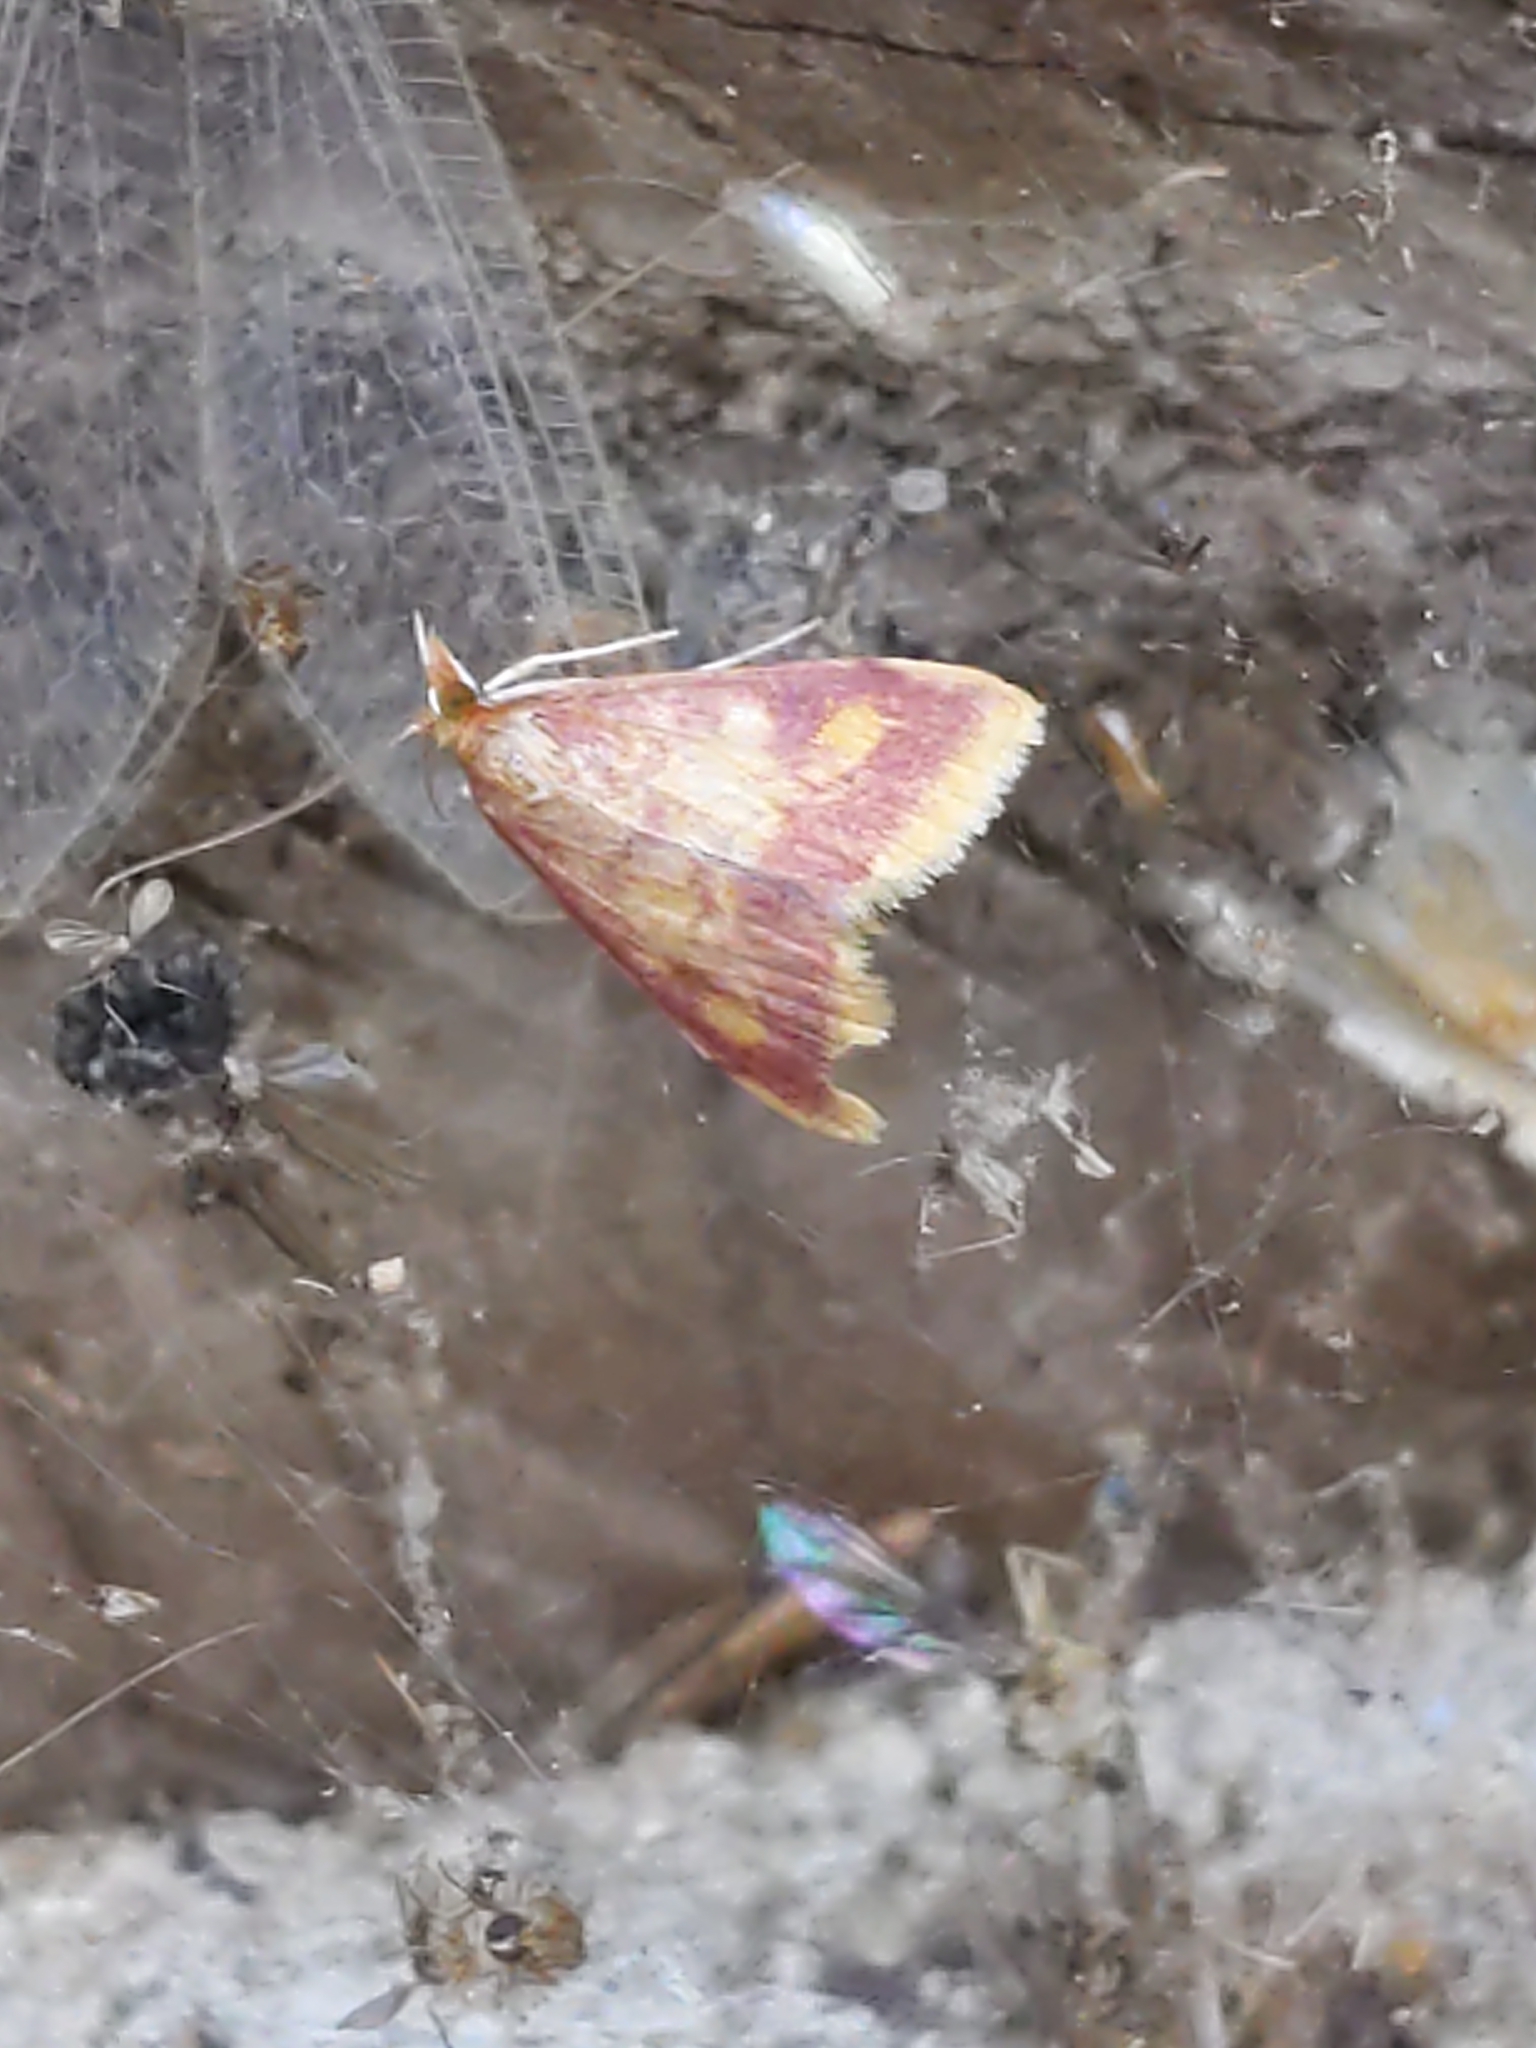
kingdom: Animalia
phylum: Arthropoda
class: Insecta
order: Lepidoptera
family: Crambidae
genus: Pyrausta
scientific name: Pyrausta acrionalis
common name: Mint-loving pyrausta moth
